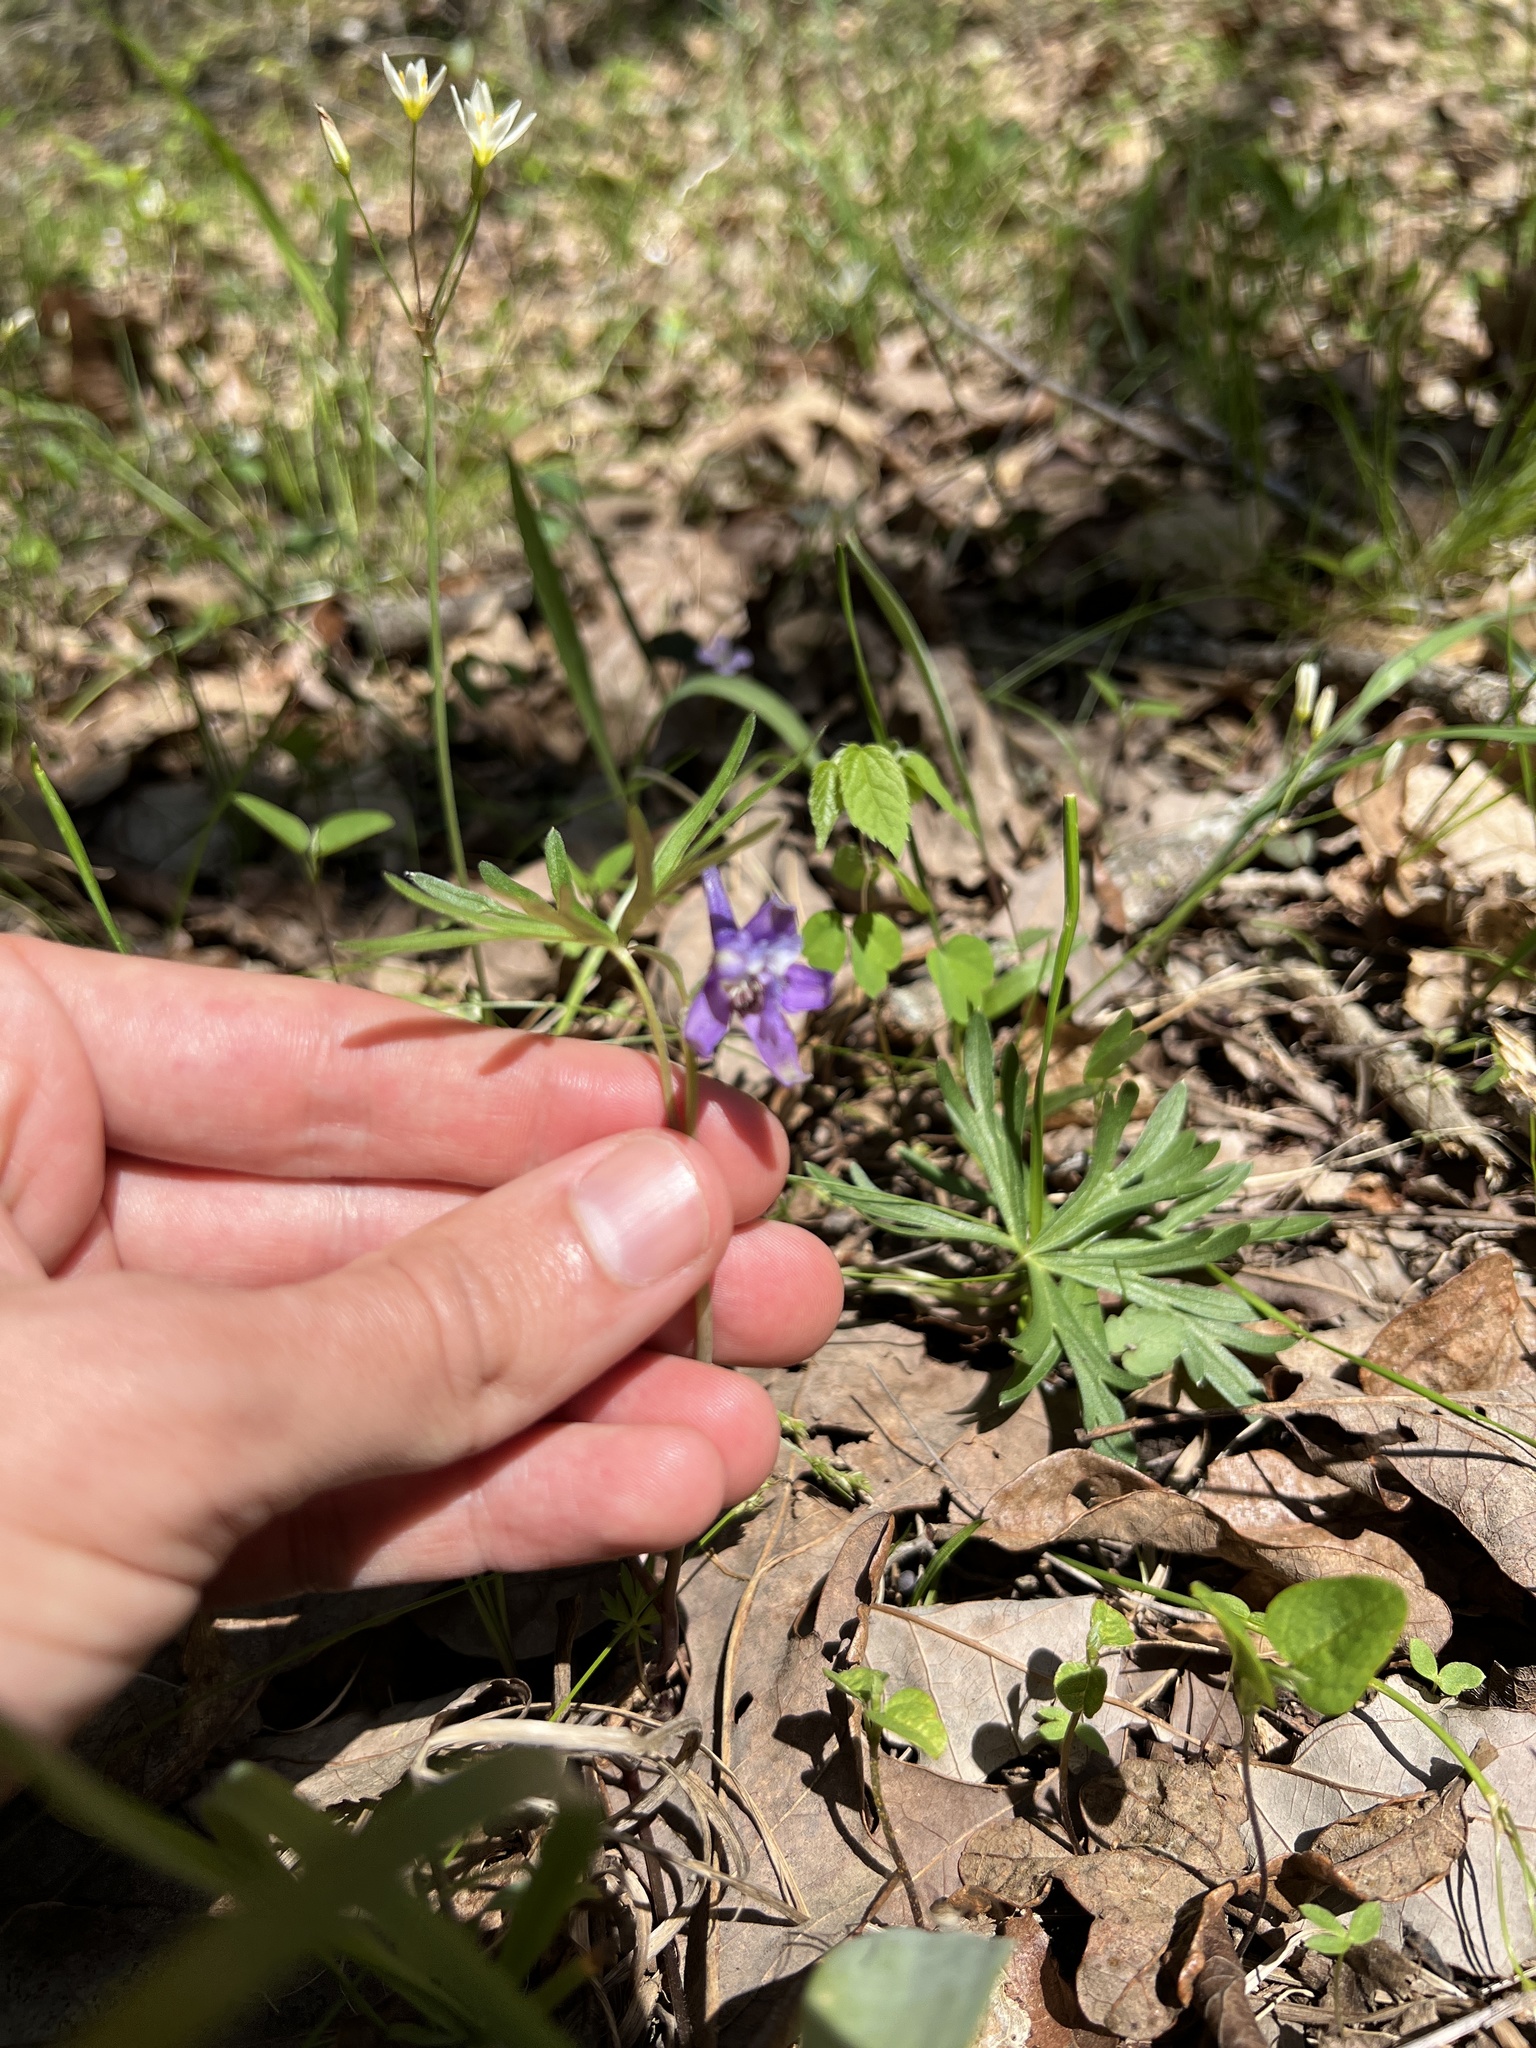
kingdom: Plantae
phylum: Tracheophyta
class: Magnoliopsida
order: Ranunculales
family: Ranunculaceae
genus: Delphinium
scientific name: Delphinium tricorne
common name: Dwarf larkspur
